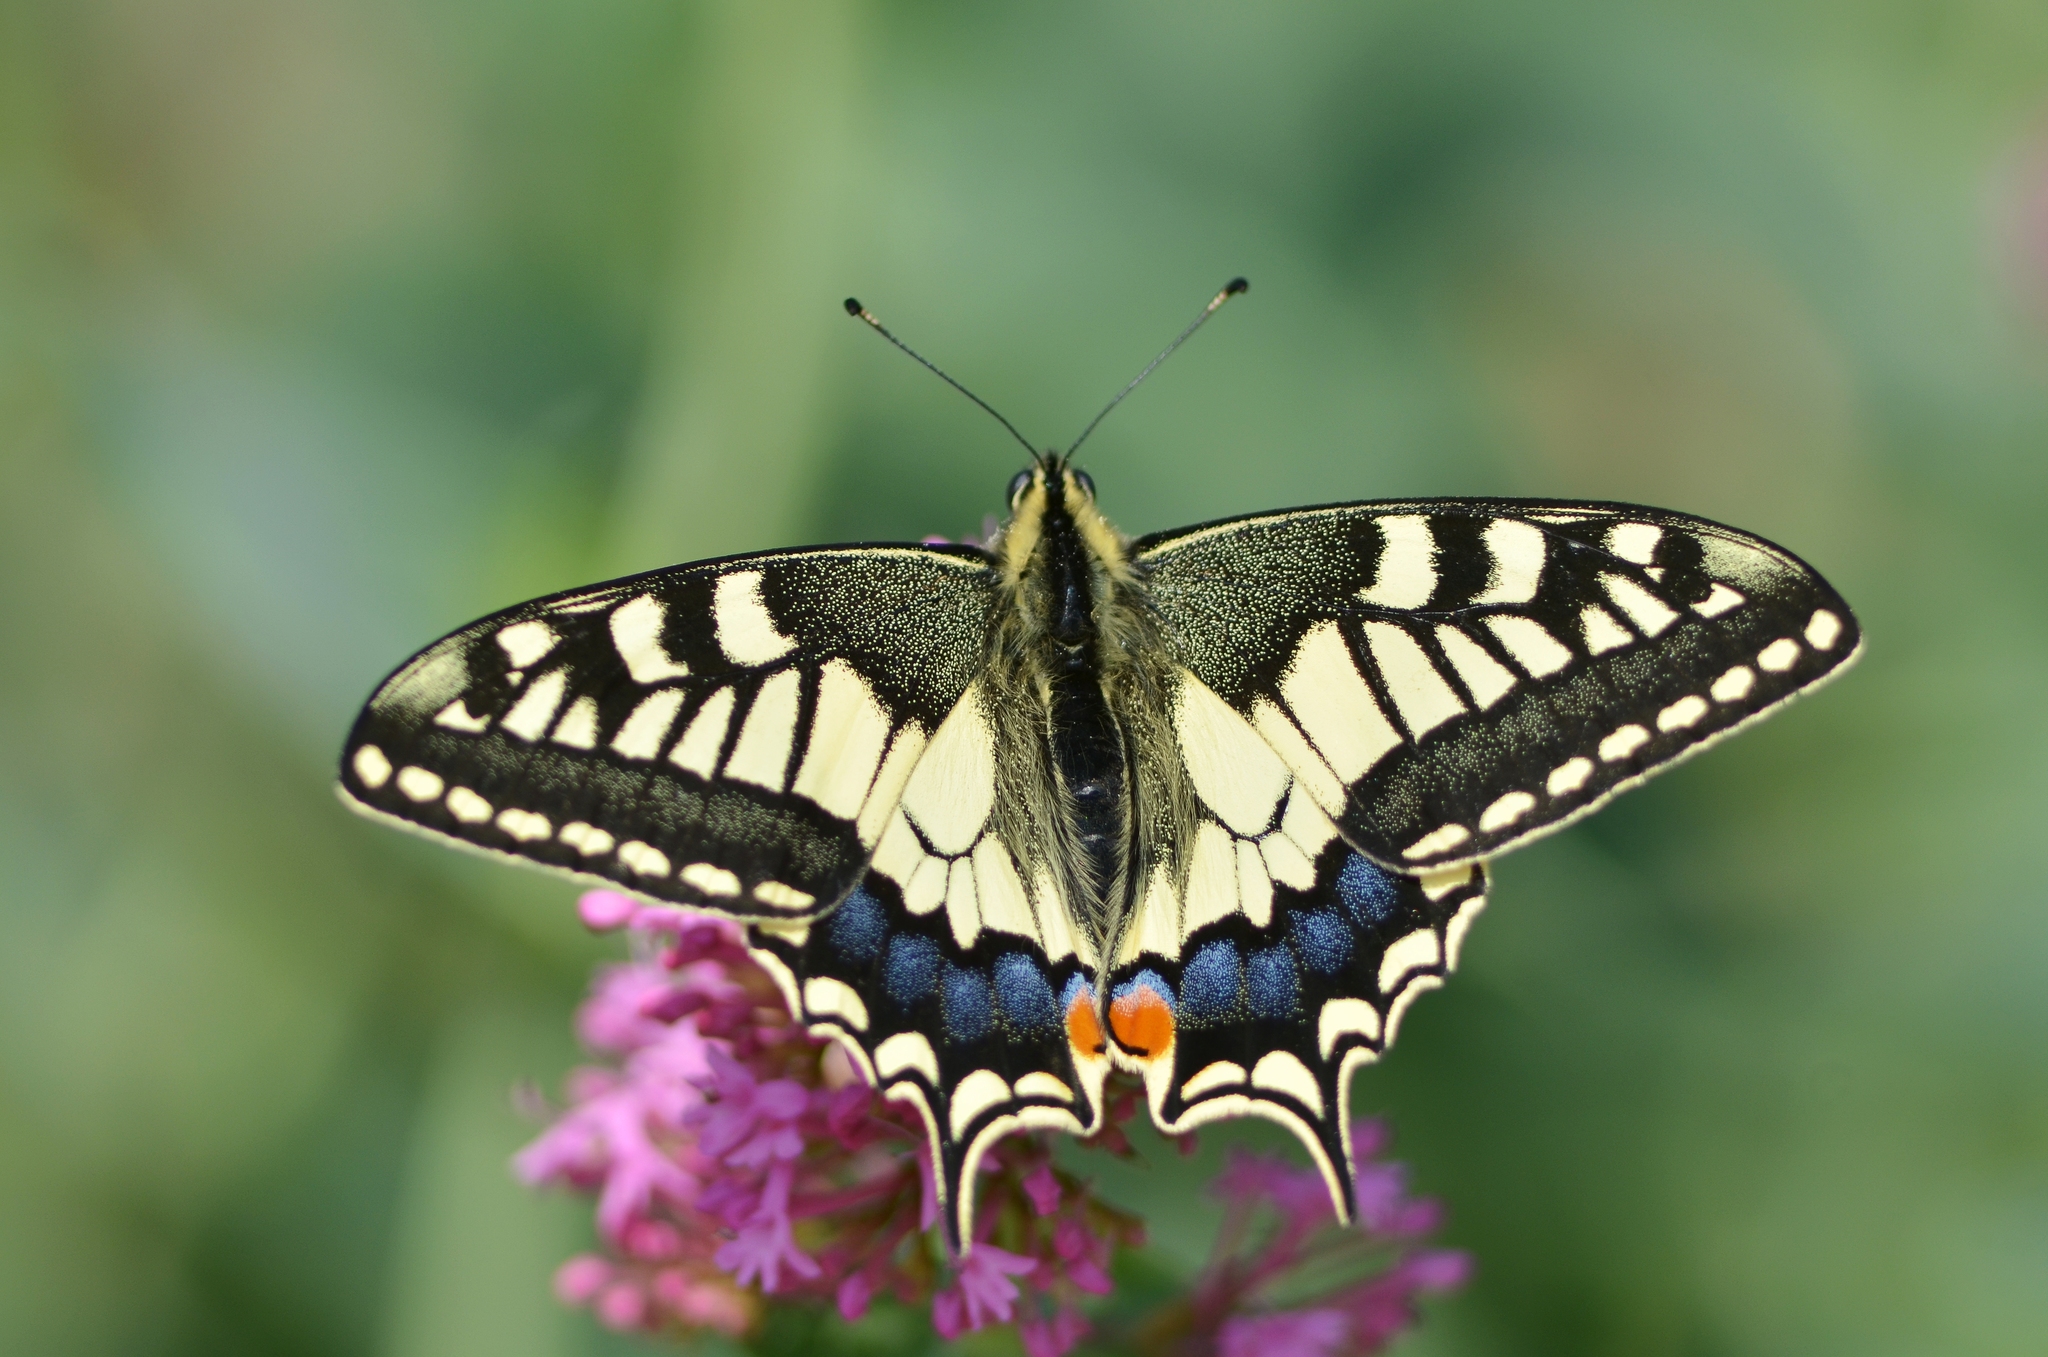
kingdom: Animalia
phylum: Arthropoda
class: Insecta
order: Lepidoptera
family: Papilionidae
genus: Papilio
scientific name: Papilio machaon
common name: Swallowtail
